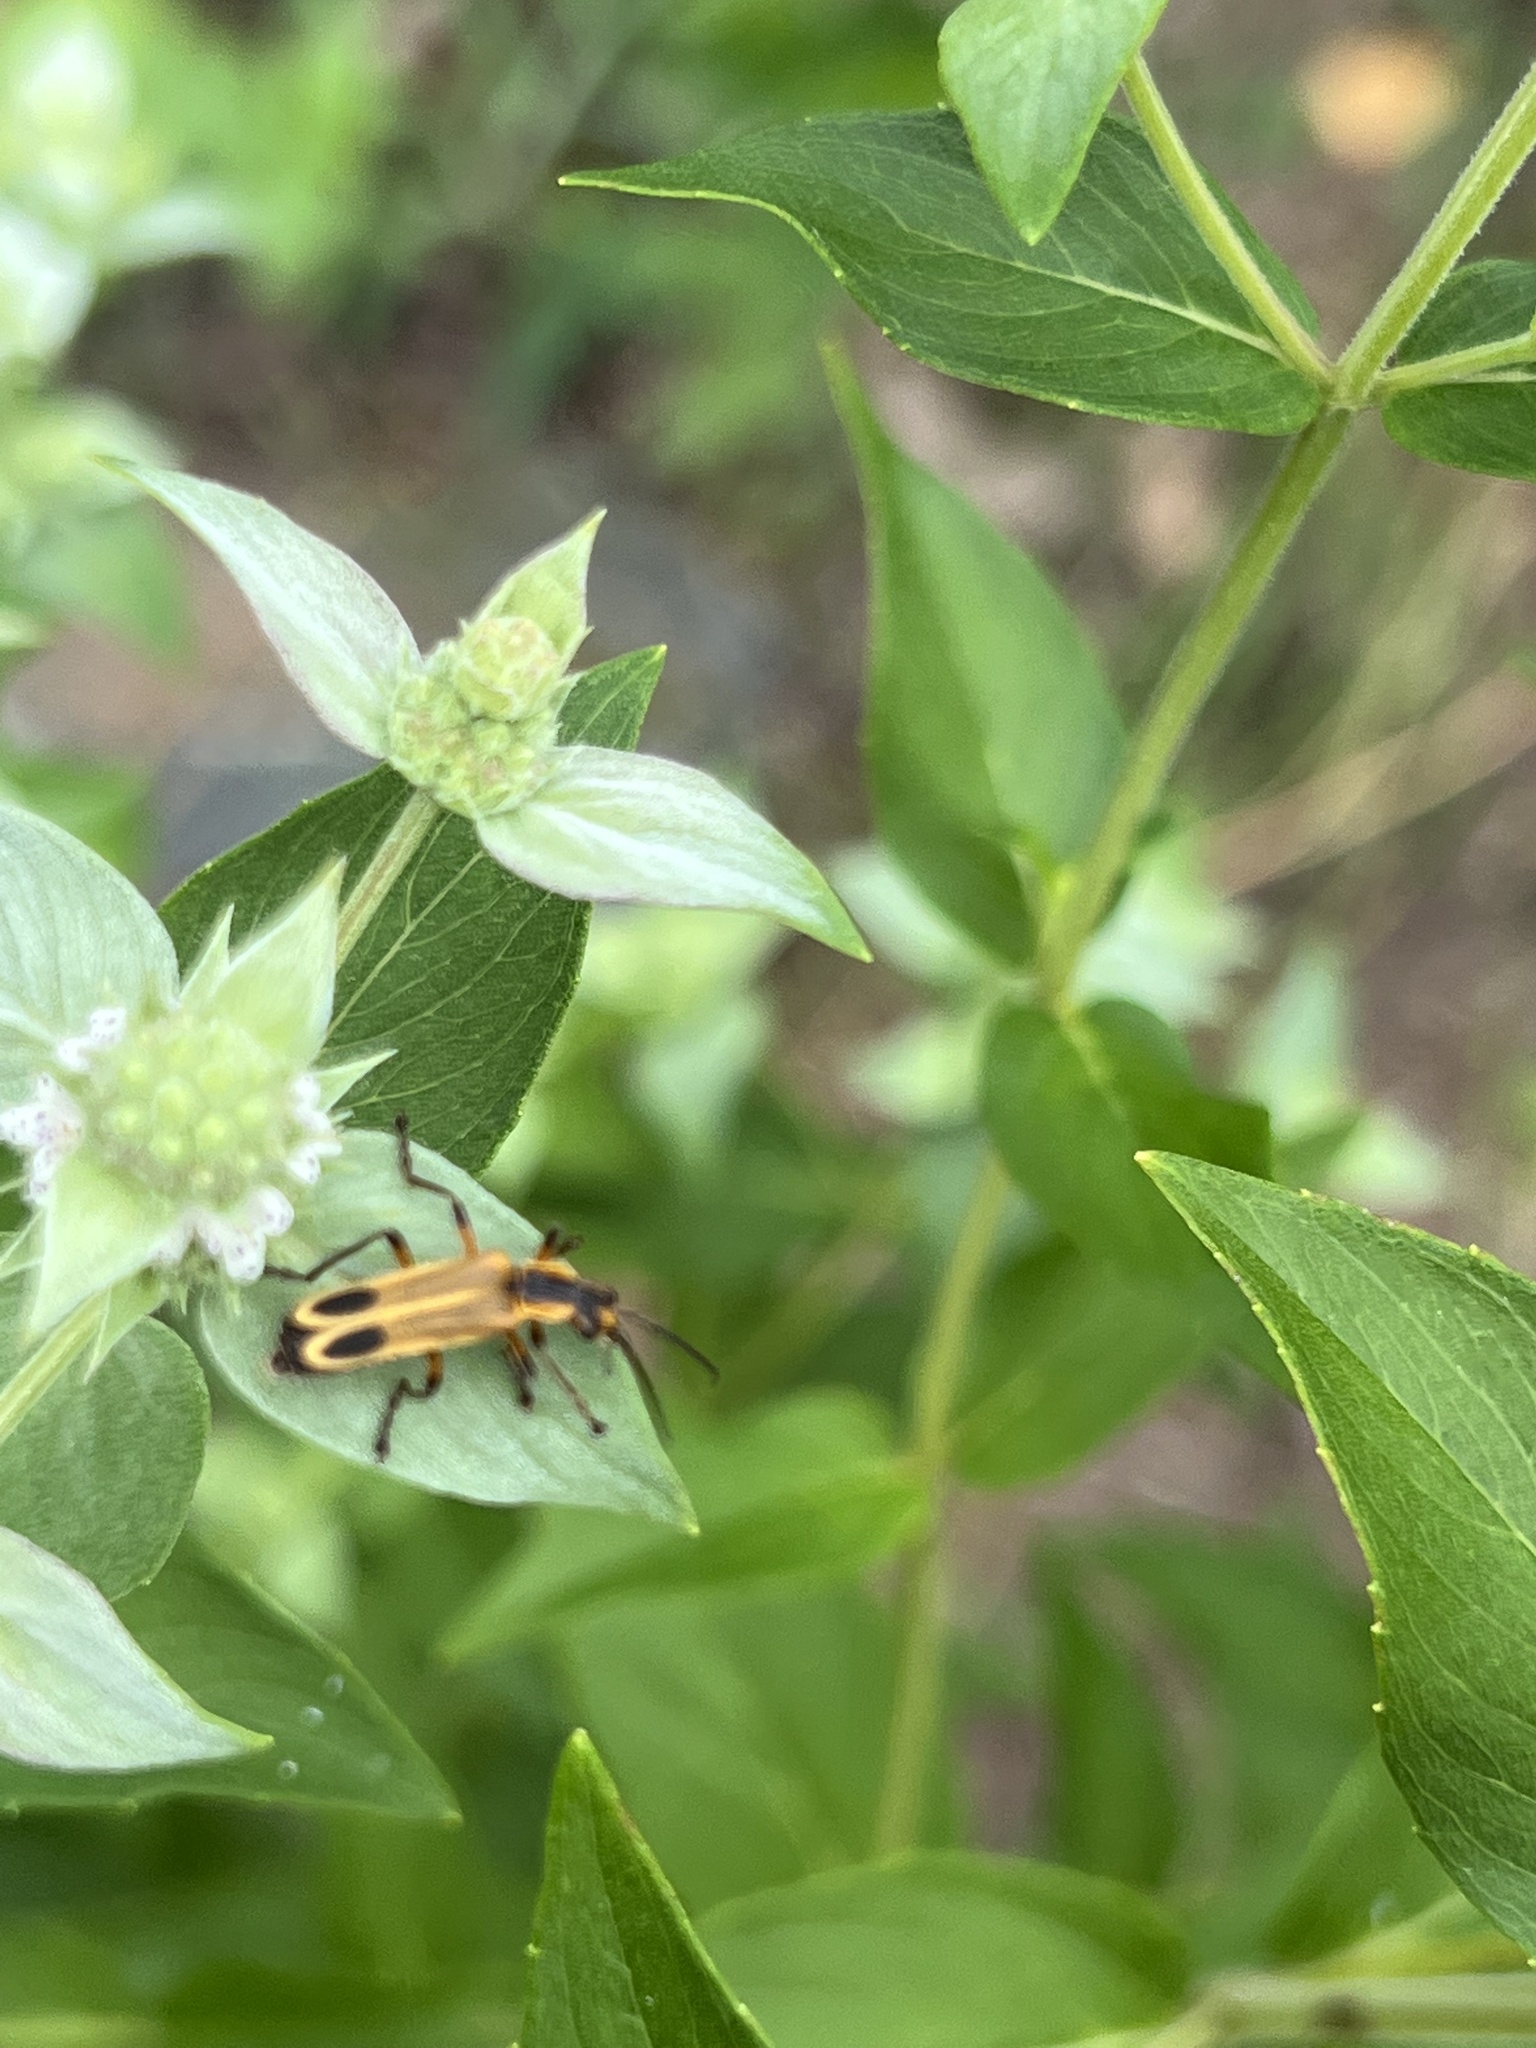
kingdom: Animalia
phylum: Arthropoda
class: Insecta
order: Coleoptera
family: Cantharidae
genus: Chauliognathus
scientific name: Chauliognathus marginatus
